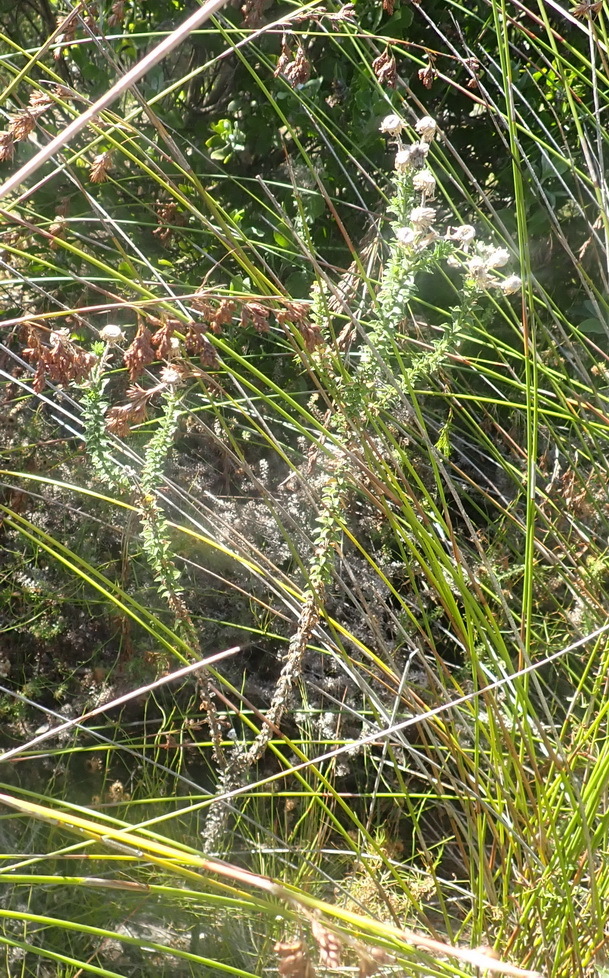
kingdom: Plantae
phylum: Tracheophyta
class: Magnoliopsida
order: Asterales
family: Asteraceae
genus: Felicia
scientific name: Felicia echinata
